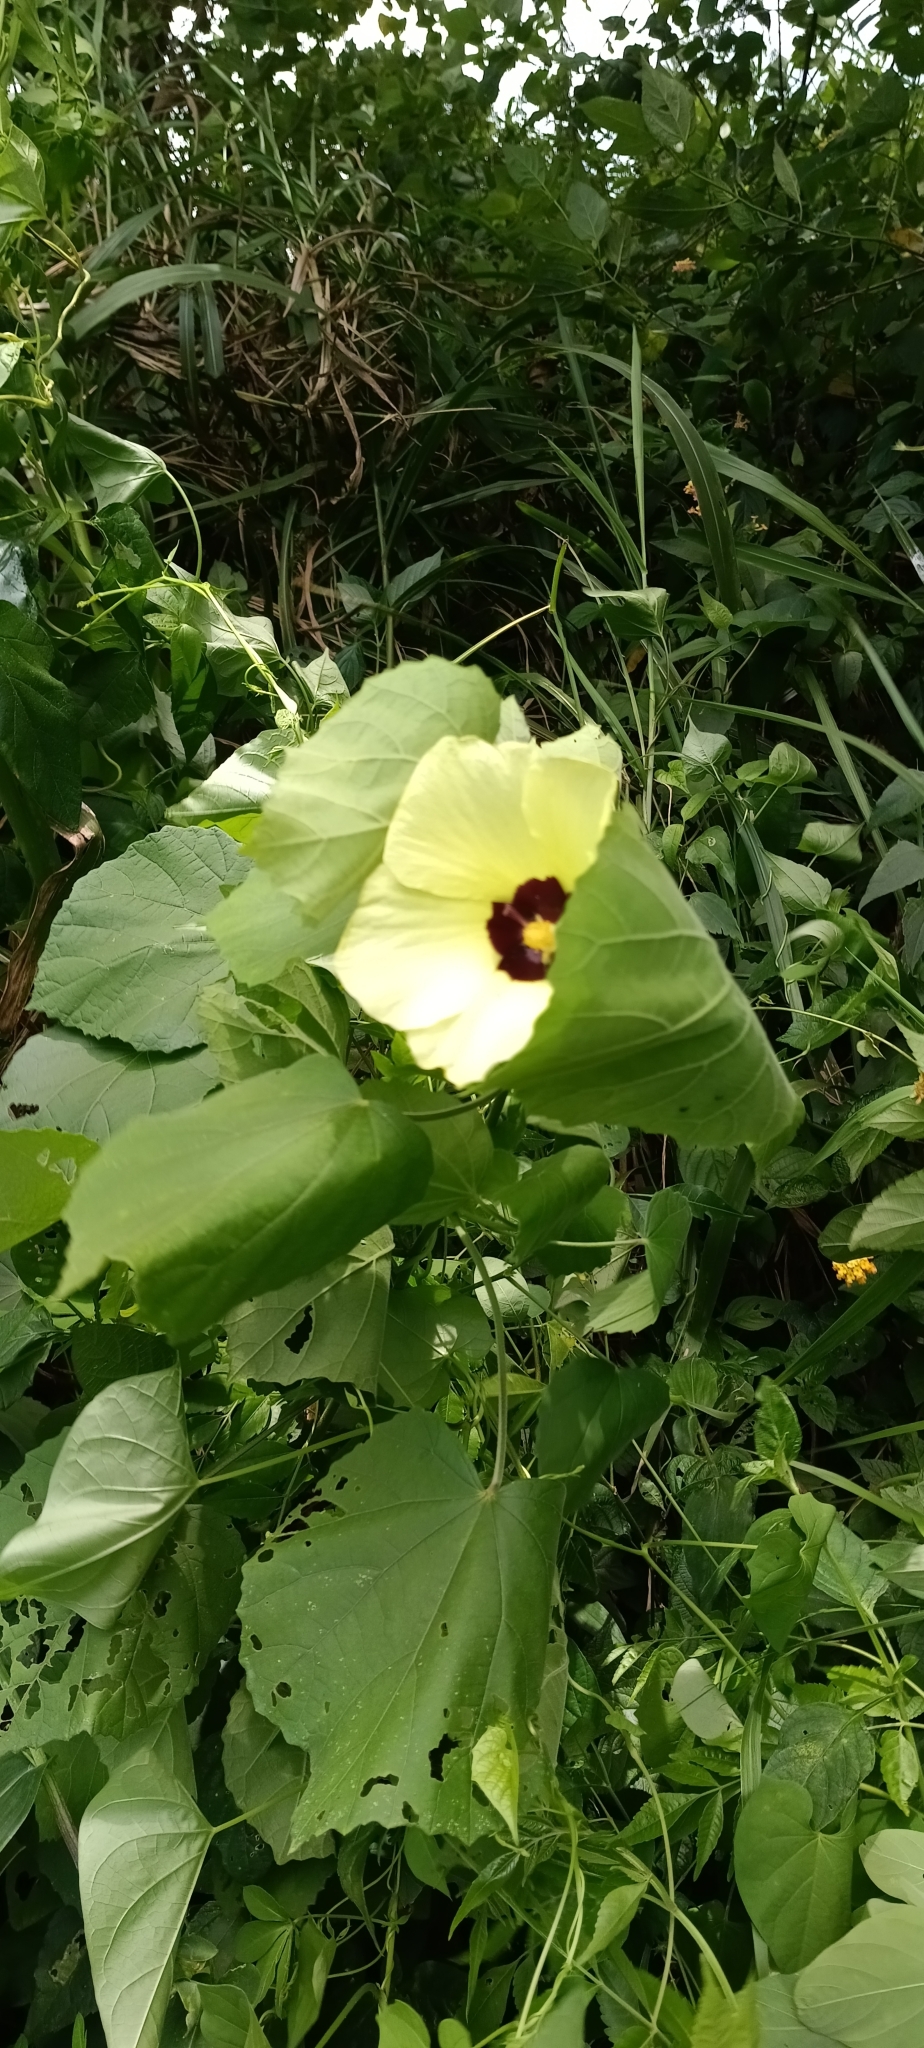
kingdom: Plantae
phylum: Tracheophyta
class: Magnoliopsida
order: Malvales
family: Malvaceae
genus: Talipariti
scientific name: Talipariti tiliaceum
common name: Sea hibiscus
